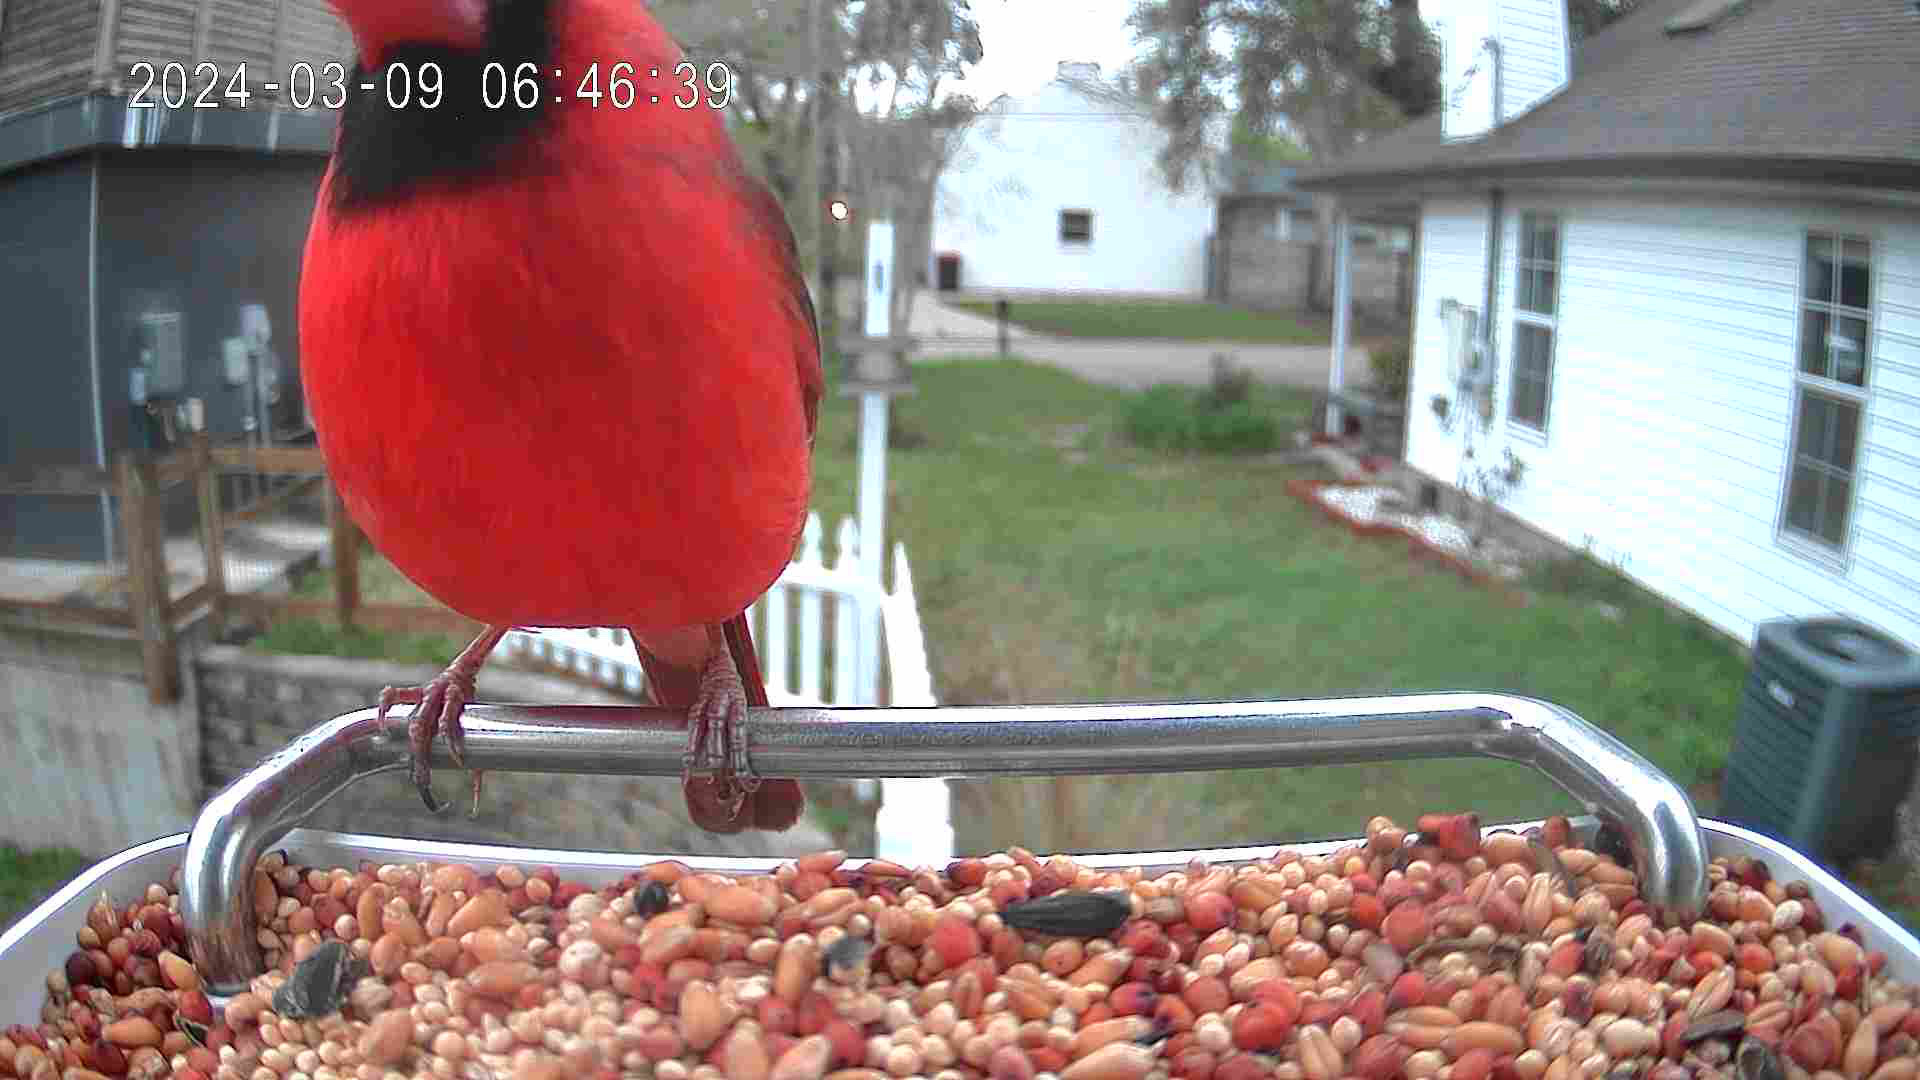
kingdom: Animalia
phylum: Chordata
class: Aves
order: Passeriformes
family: Cardinalidae
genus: Cardinalis
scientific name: Cardinalis cardinalis
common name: Northern cardinal
